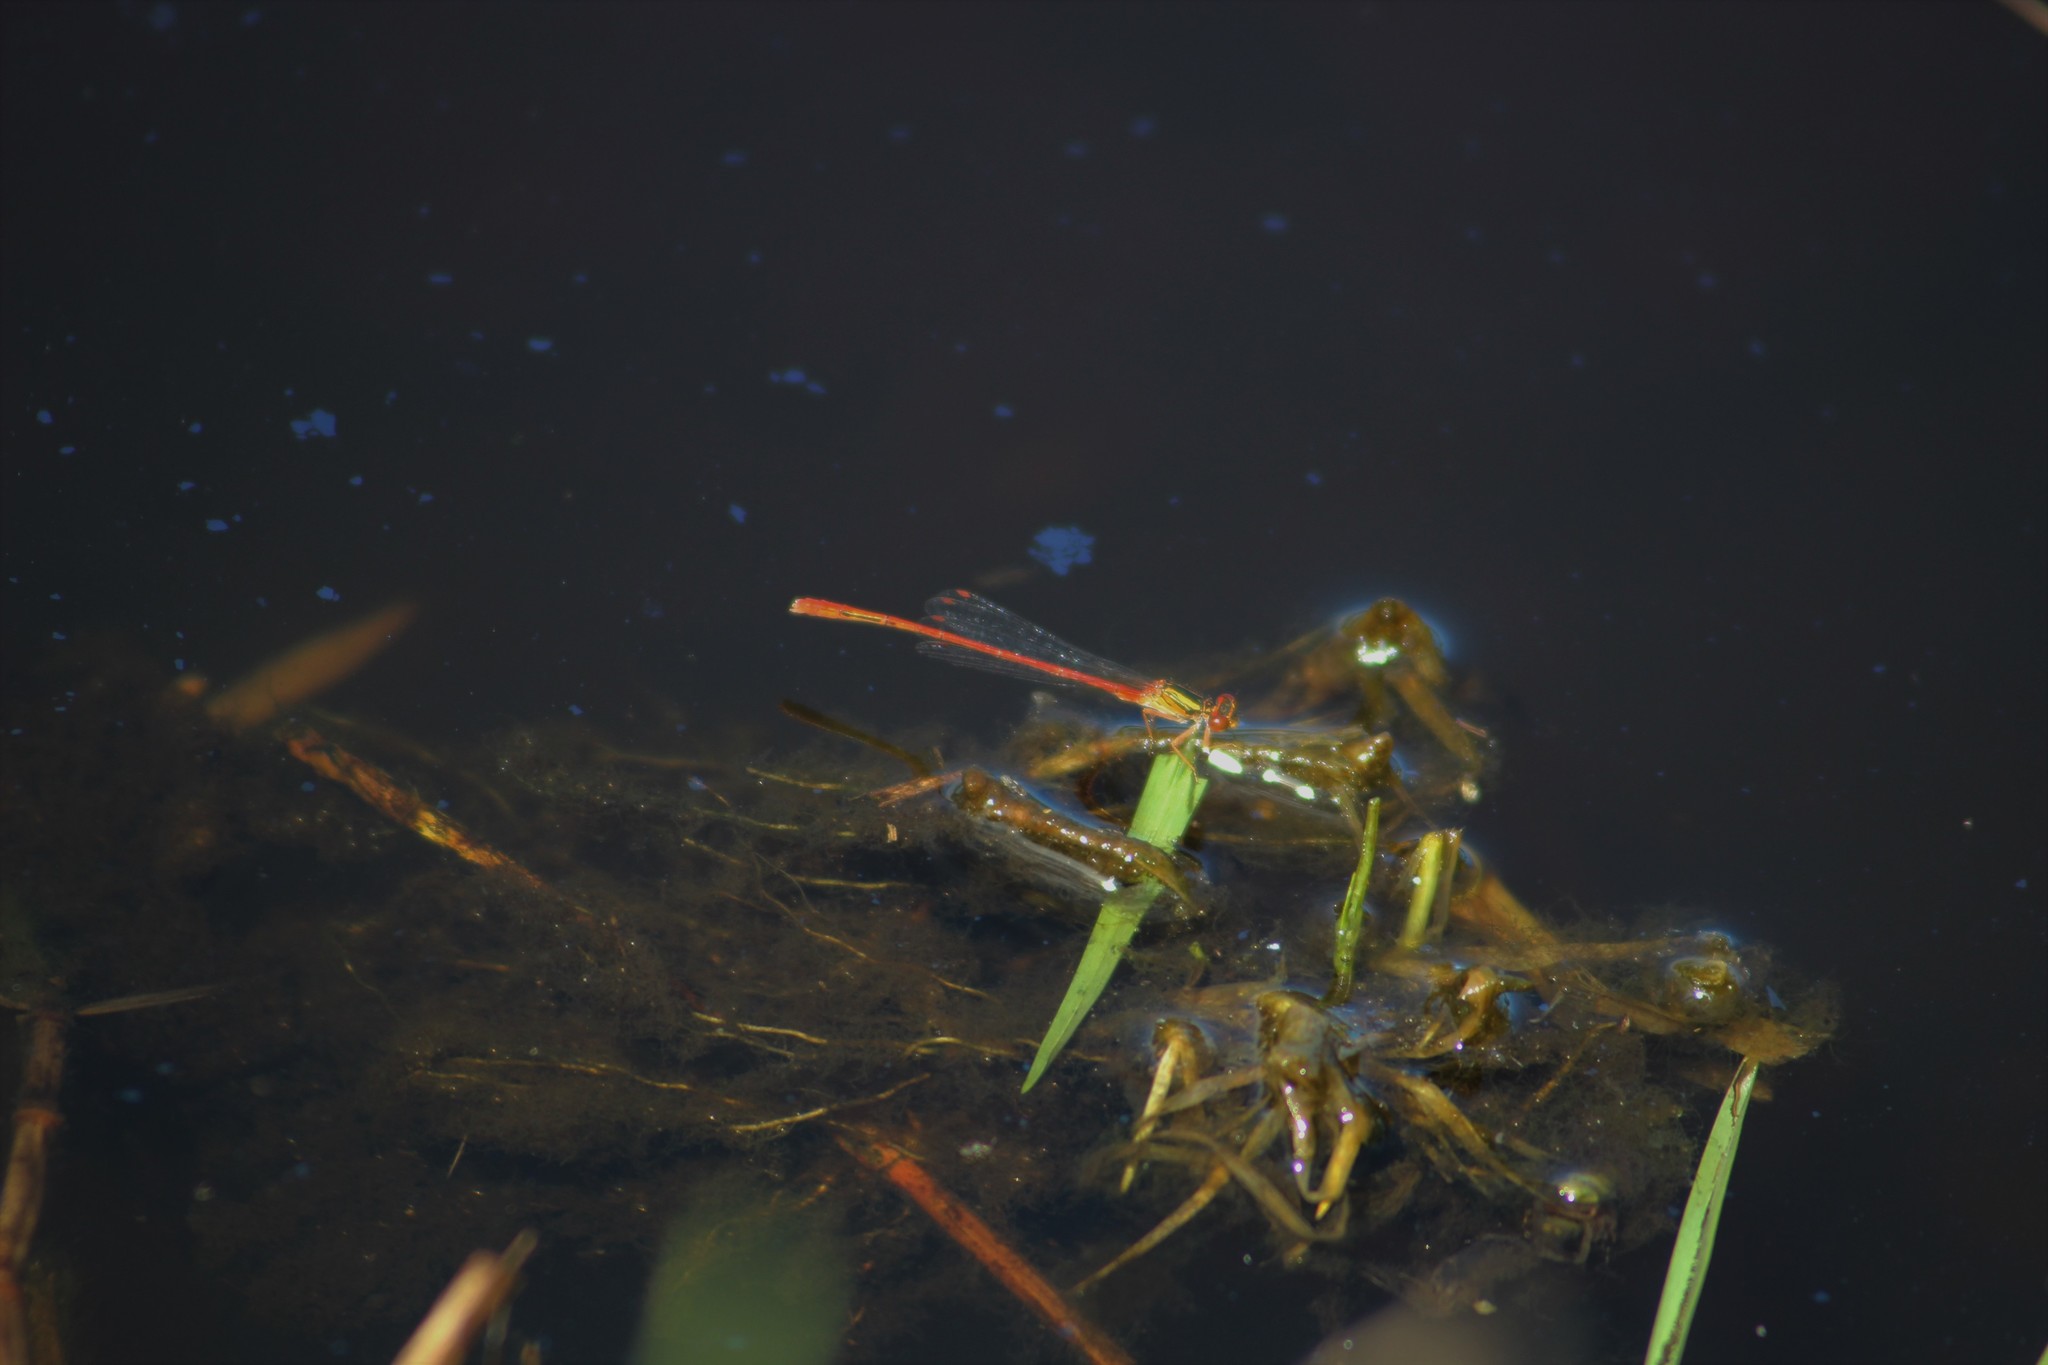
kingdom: Animalia
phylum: Arthropoda
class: Insecta
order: Odonata
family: Coenagrionidae
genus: Xanthocnemis
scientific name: Xanthocnemis zealandica
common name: Common redcoat damselfly
